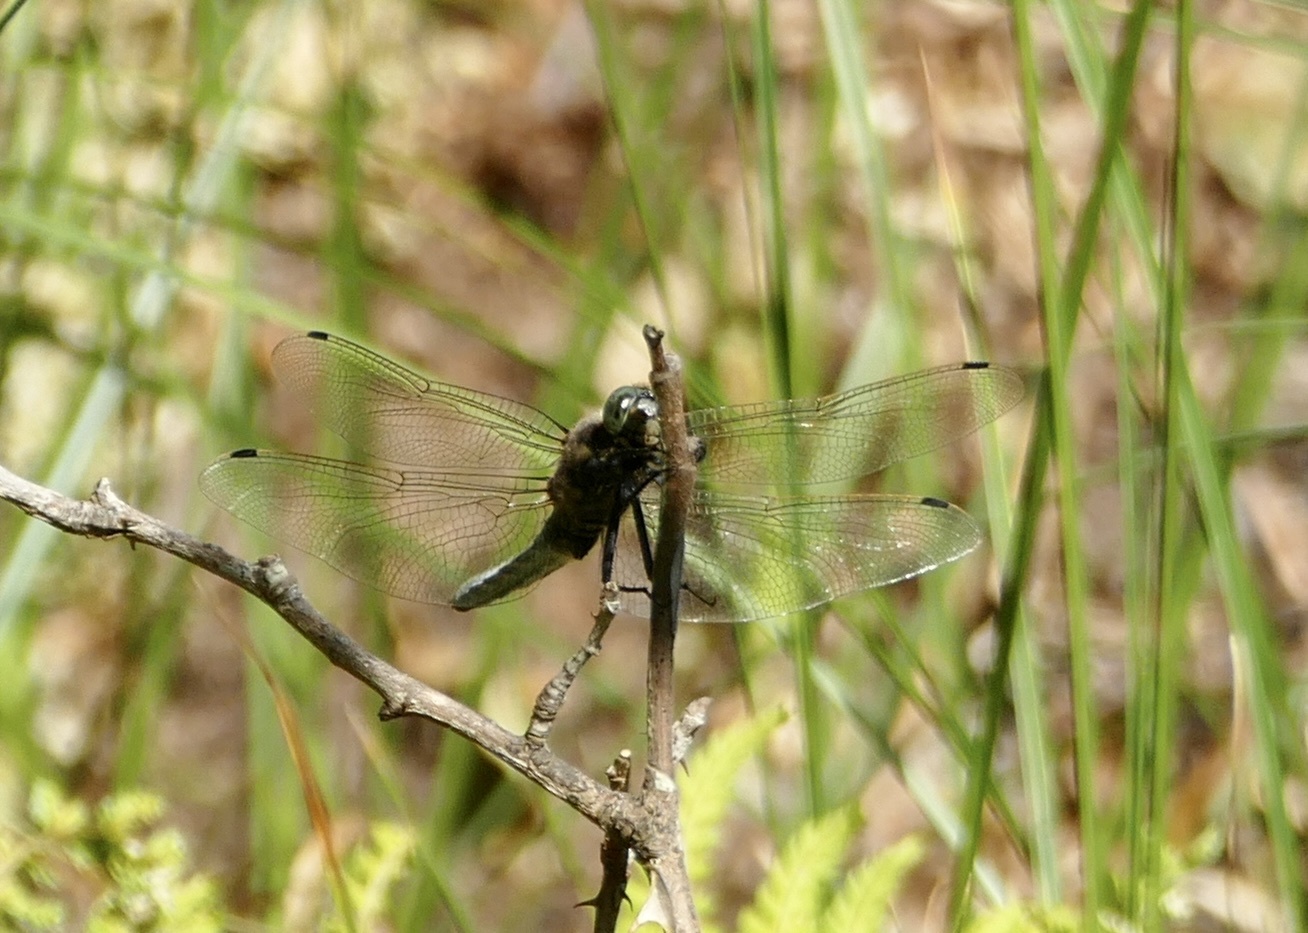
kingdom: Animalia
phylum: Arthropoda
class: Insecta
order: Odonata
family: Libellulidae
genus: Orthetrum
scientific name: Orthetrum cancellatum
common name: Black-tailed skimmer
